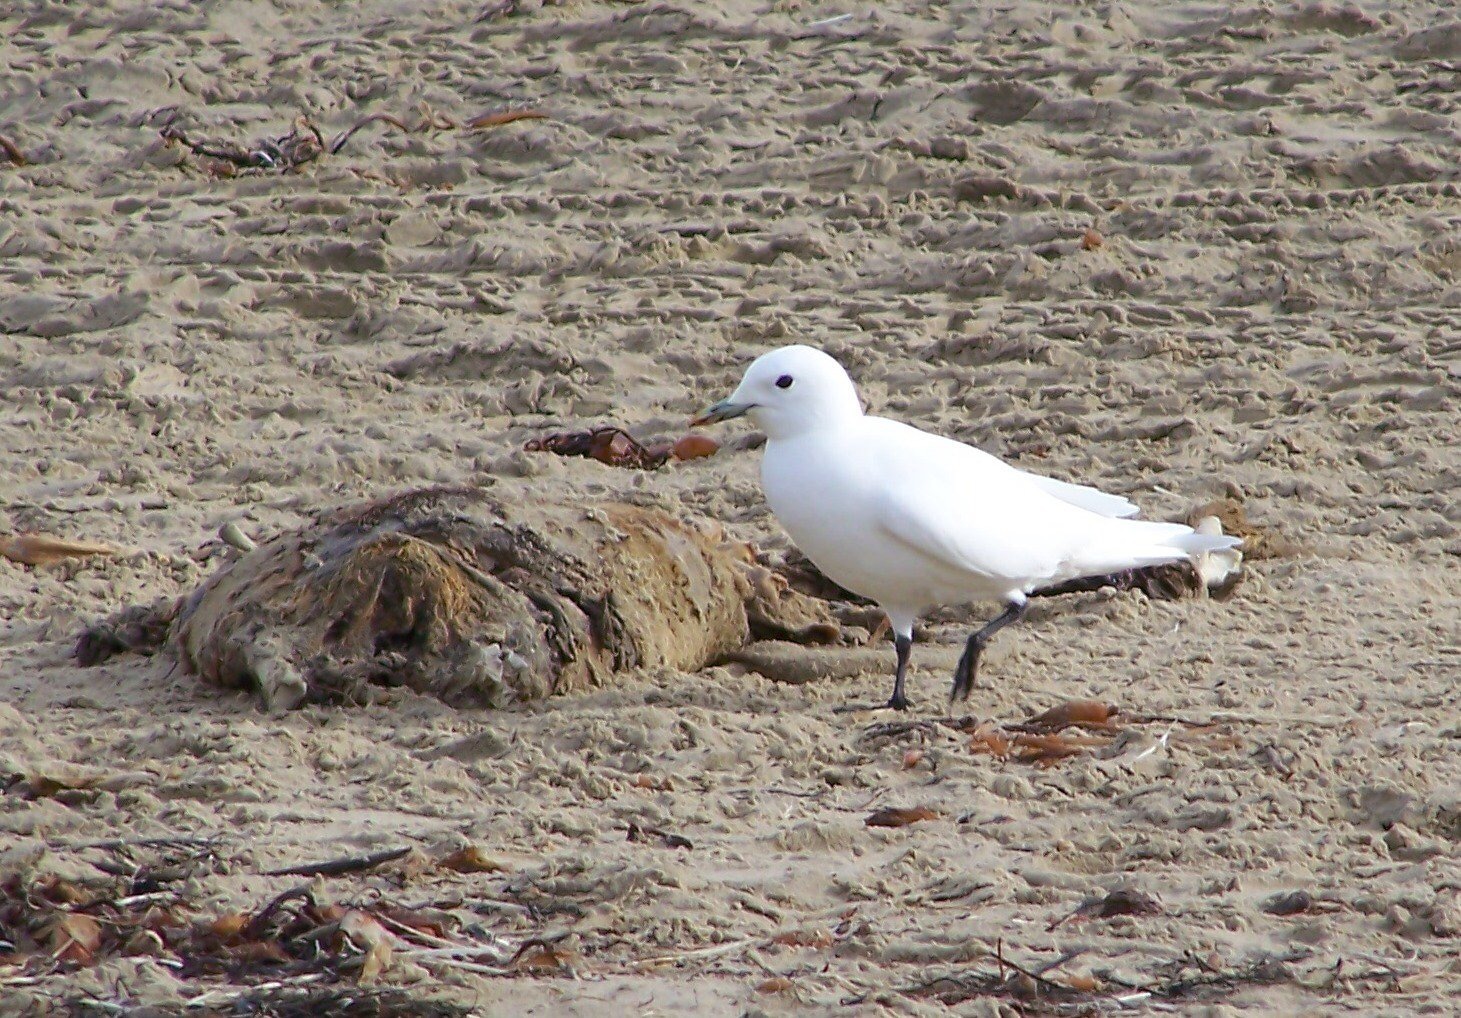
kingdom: Animalia
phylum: Chordata
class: Aves
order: Charadriiformes
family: Laridae
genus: Pagophila
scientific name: Pagophila eburnea
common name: Ivory gull
